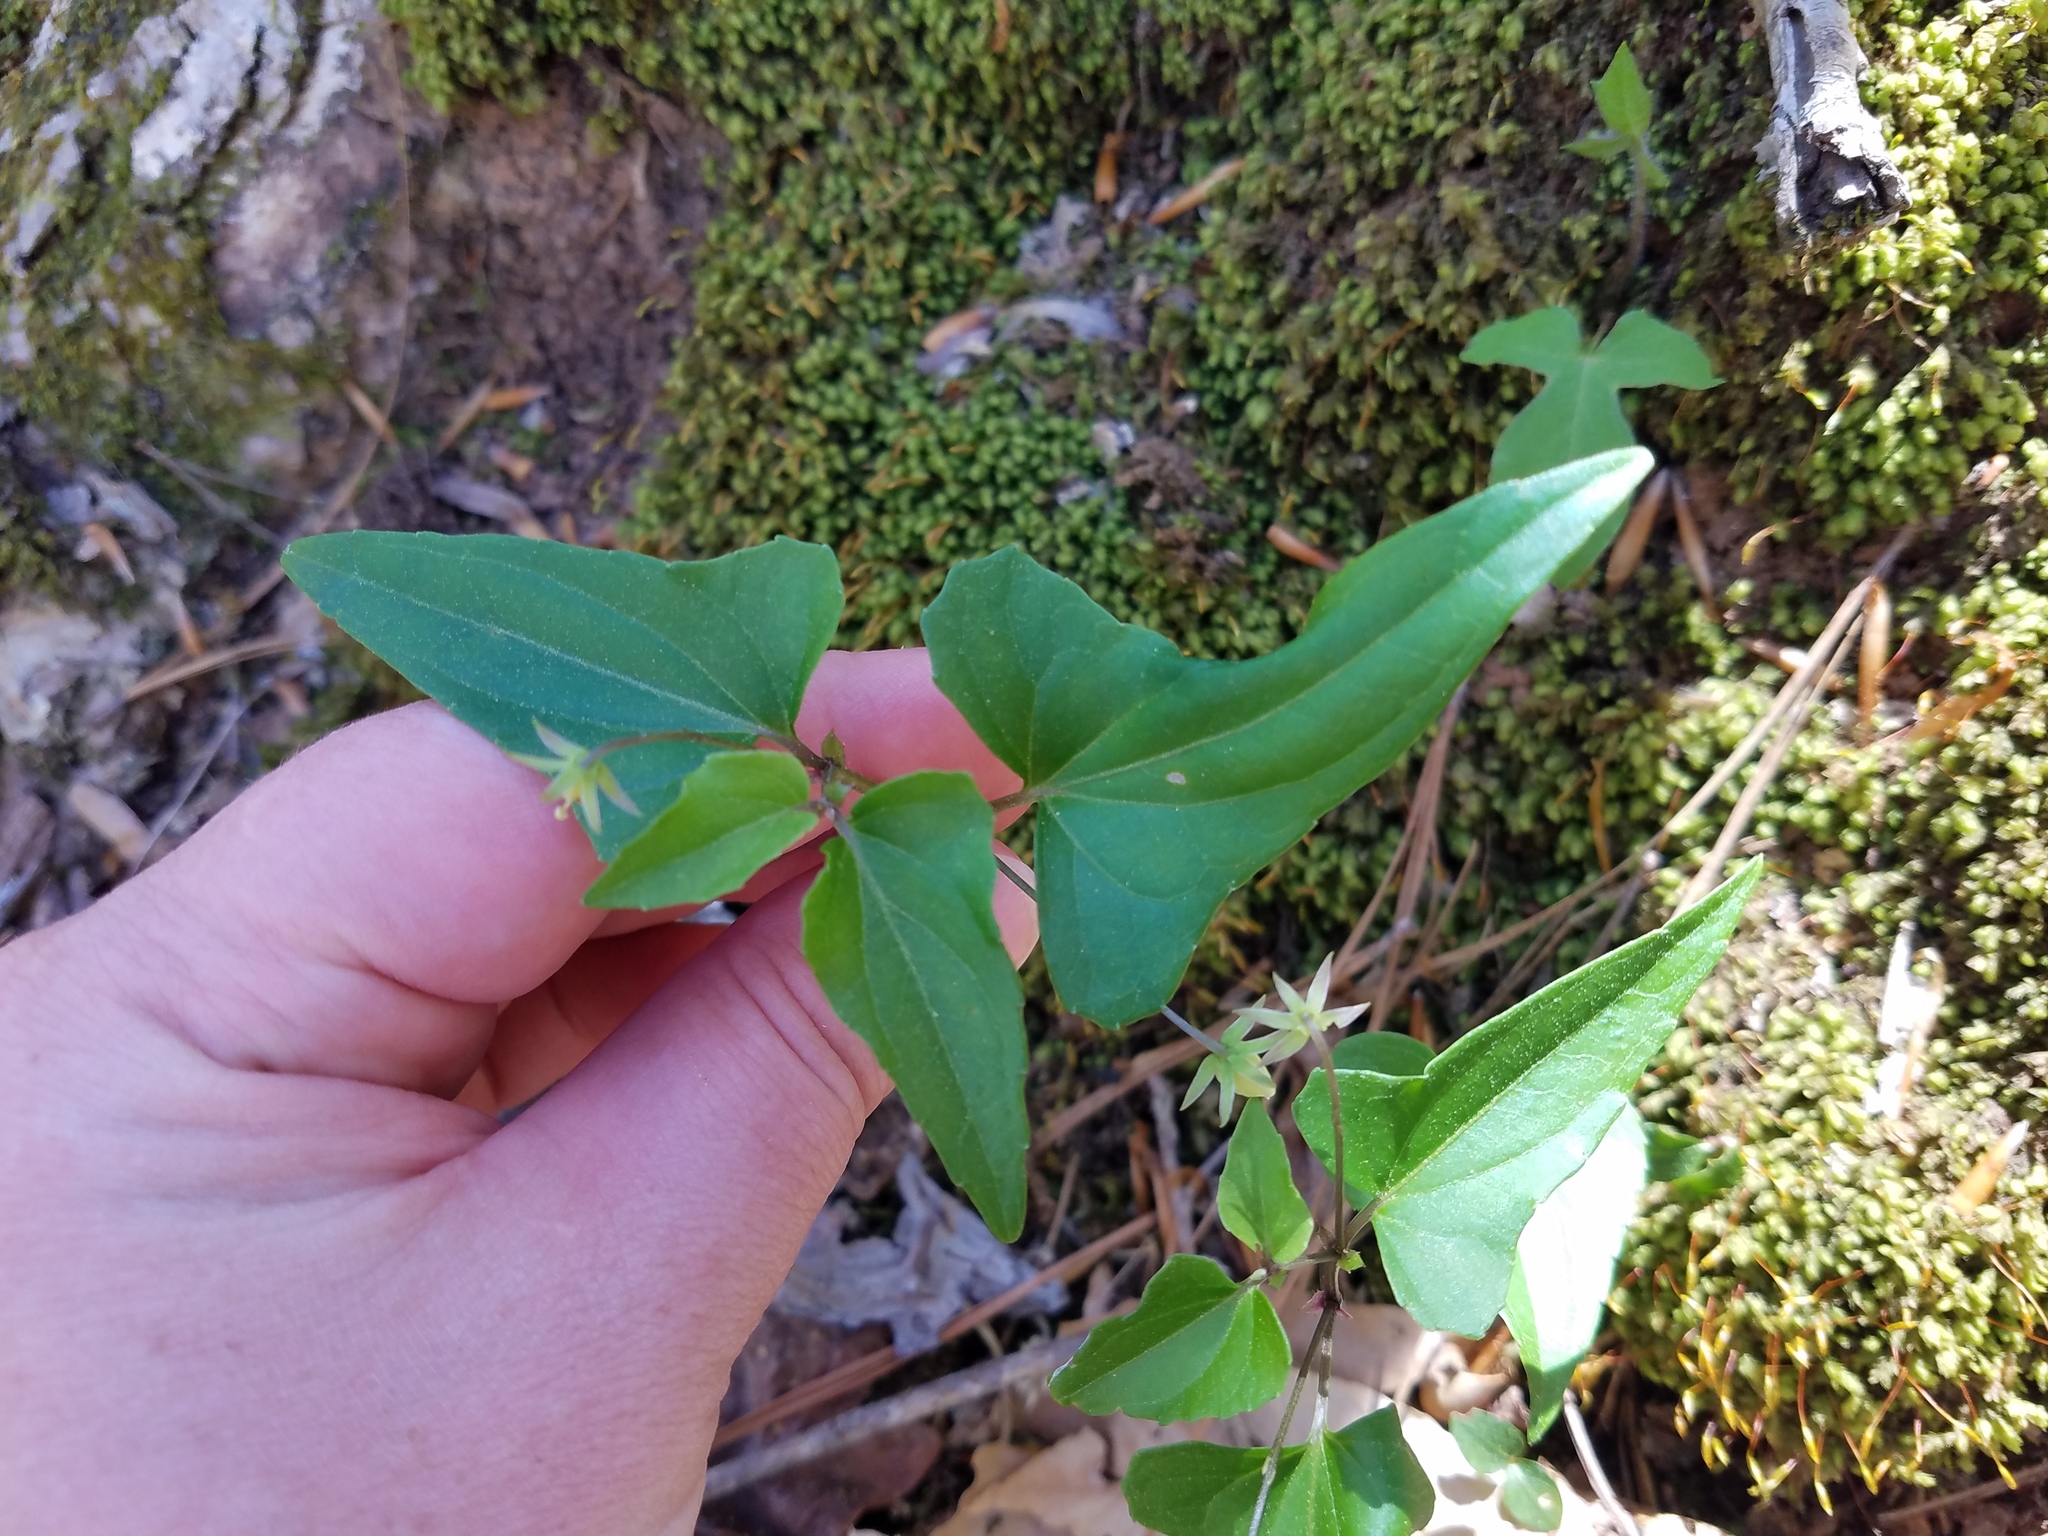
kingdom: Plantae
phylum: Tracheophyta
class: Magnoliopsida
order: Malpighiales
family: Violaceae
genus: Viola
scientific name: Viola hastata
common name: Spear-leaf violet
